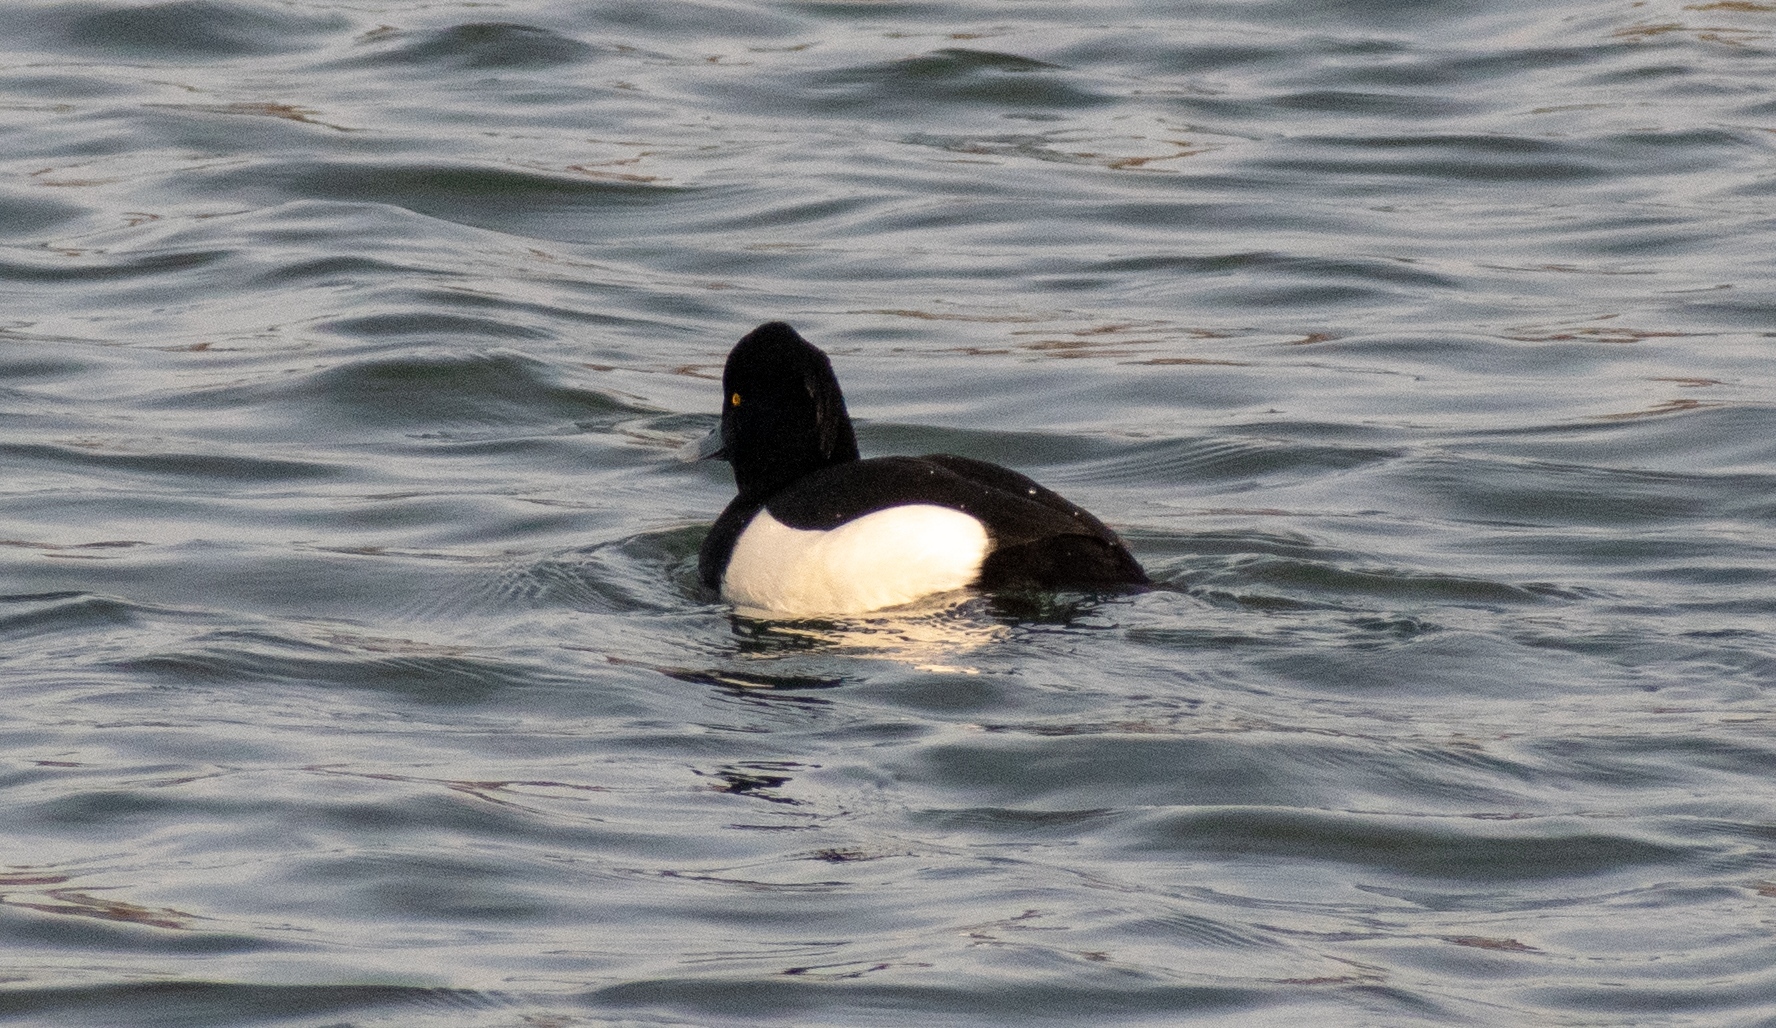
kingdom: Animalia
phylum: Chordata
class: Aves
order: Anseriformes
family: Anatidae
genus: Aythya
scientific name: Aythya fuligula
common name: Tufted duck
